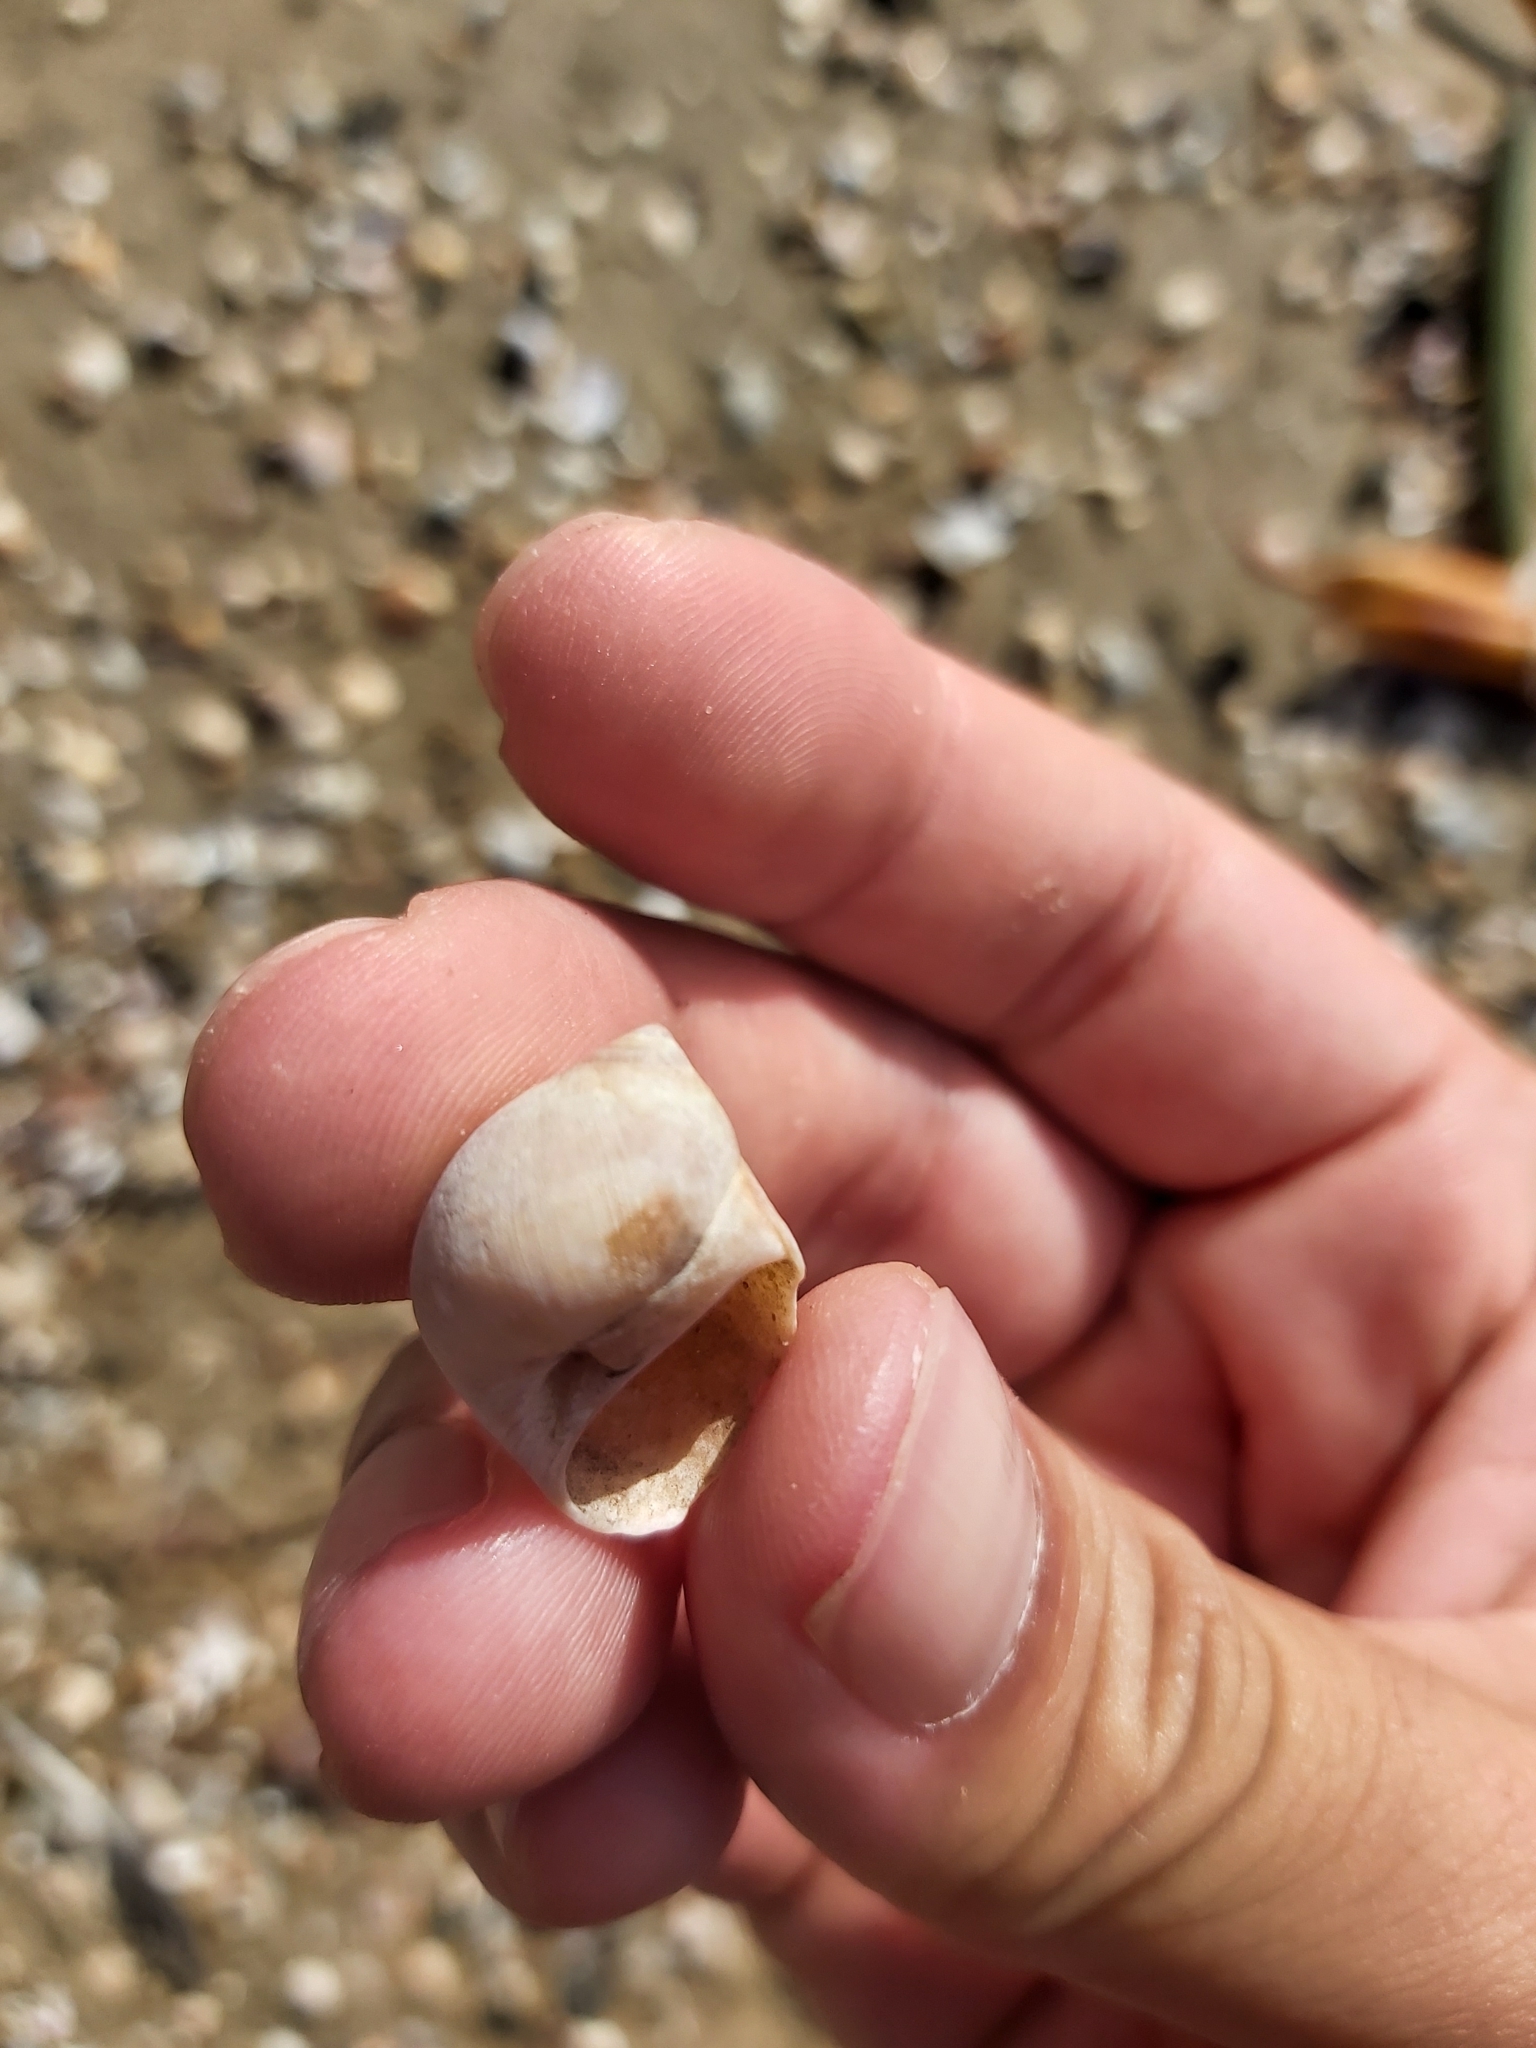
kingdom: Animalia
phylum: Mollusca
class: Gastropoda
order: Littorinimorpha
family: Naticidae
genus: Conuber
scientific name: Conuber conicum
